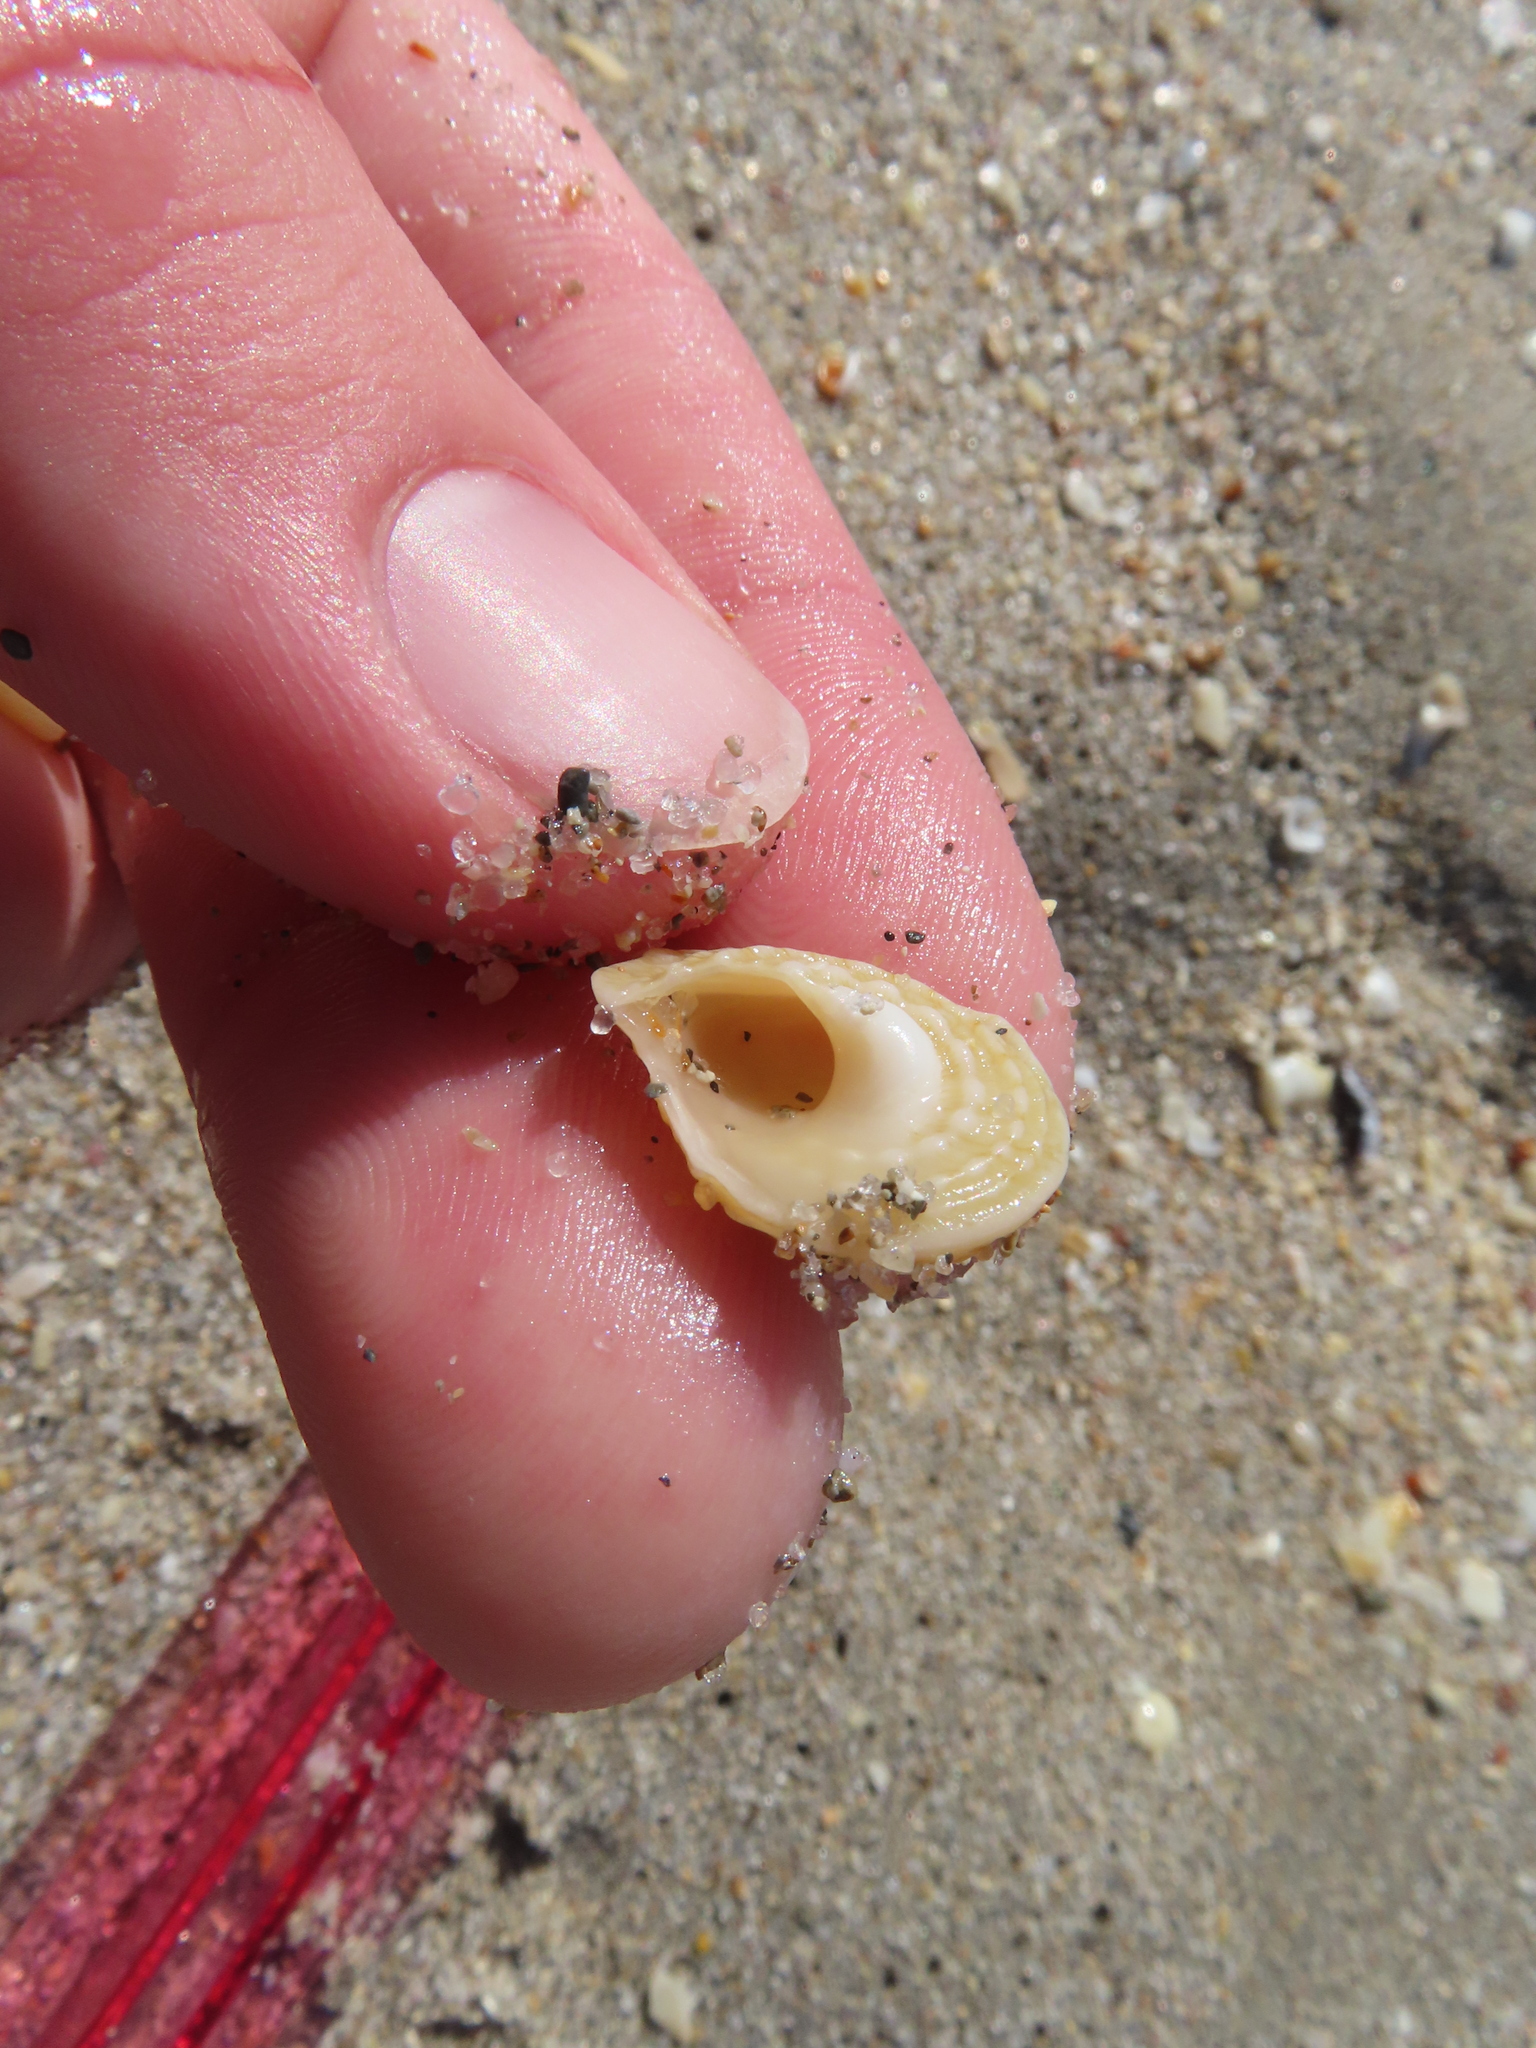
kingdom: Animalia
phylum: Mollusca
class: Gastropoda
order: Trochida
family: Turbinidae
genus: Lithopoma
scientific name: Lithopoma phoebium
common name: Long-spined starsnail
